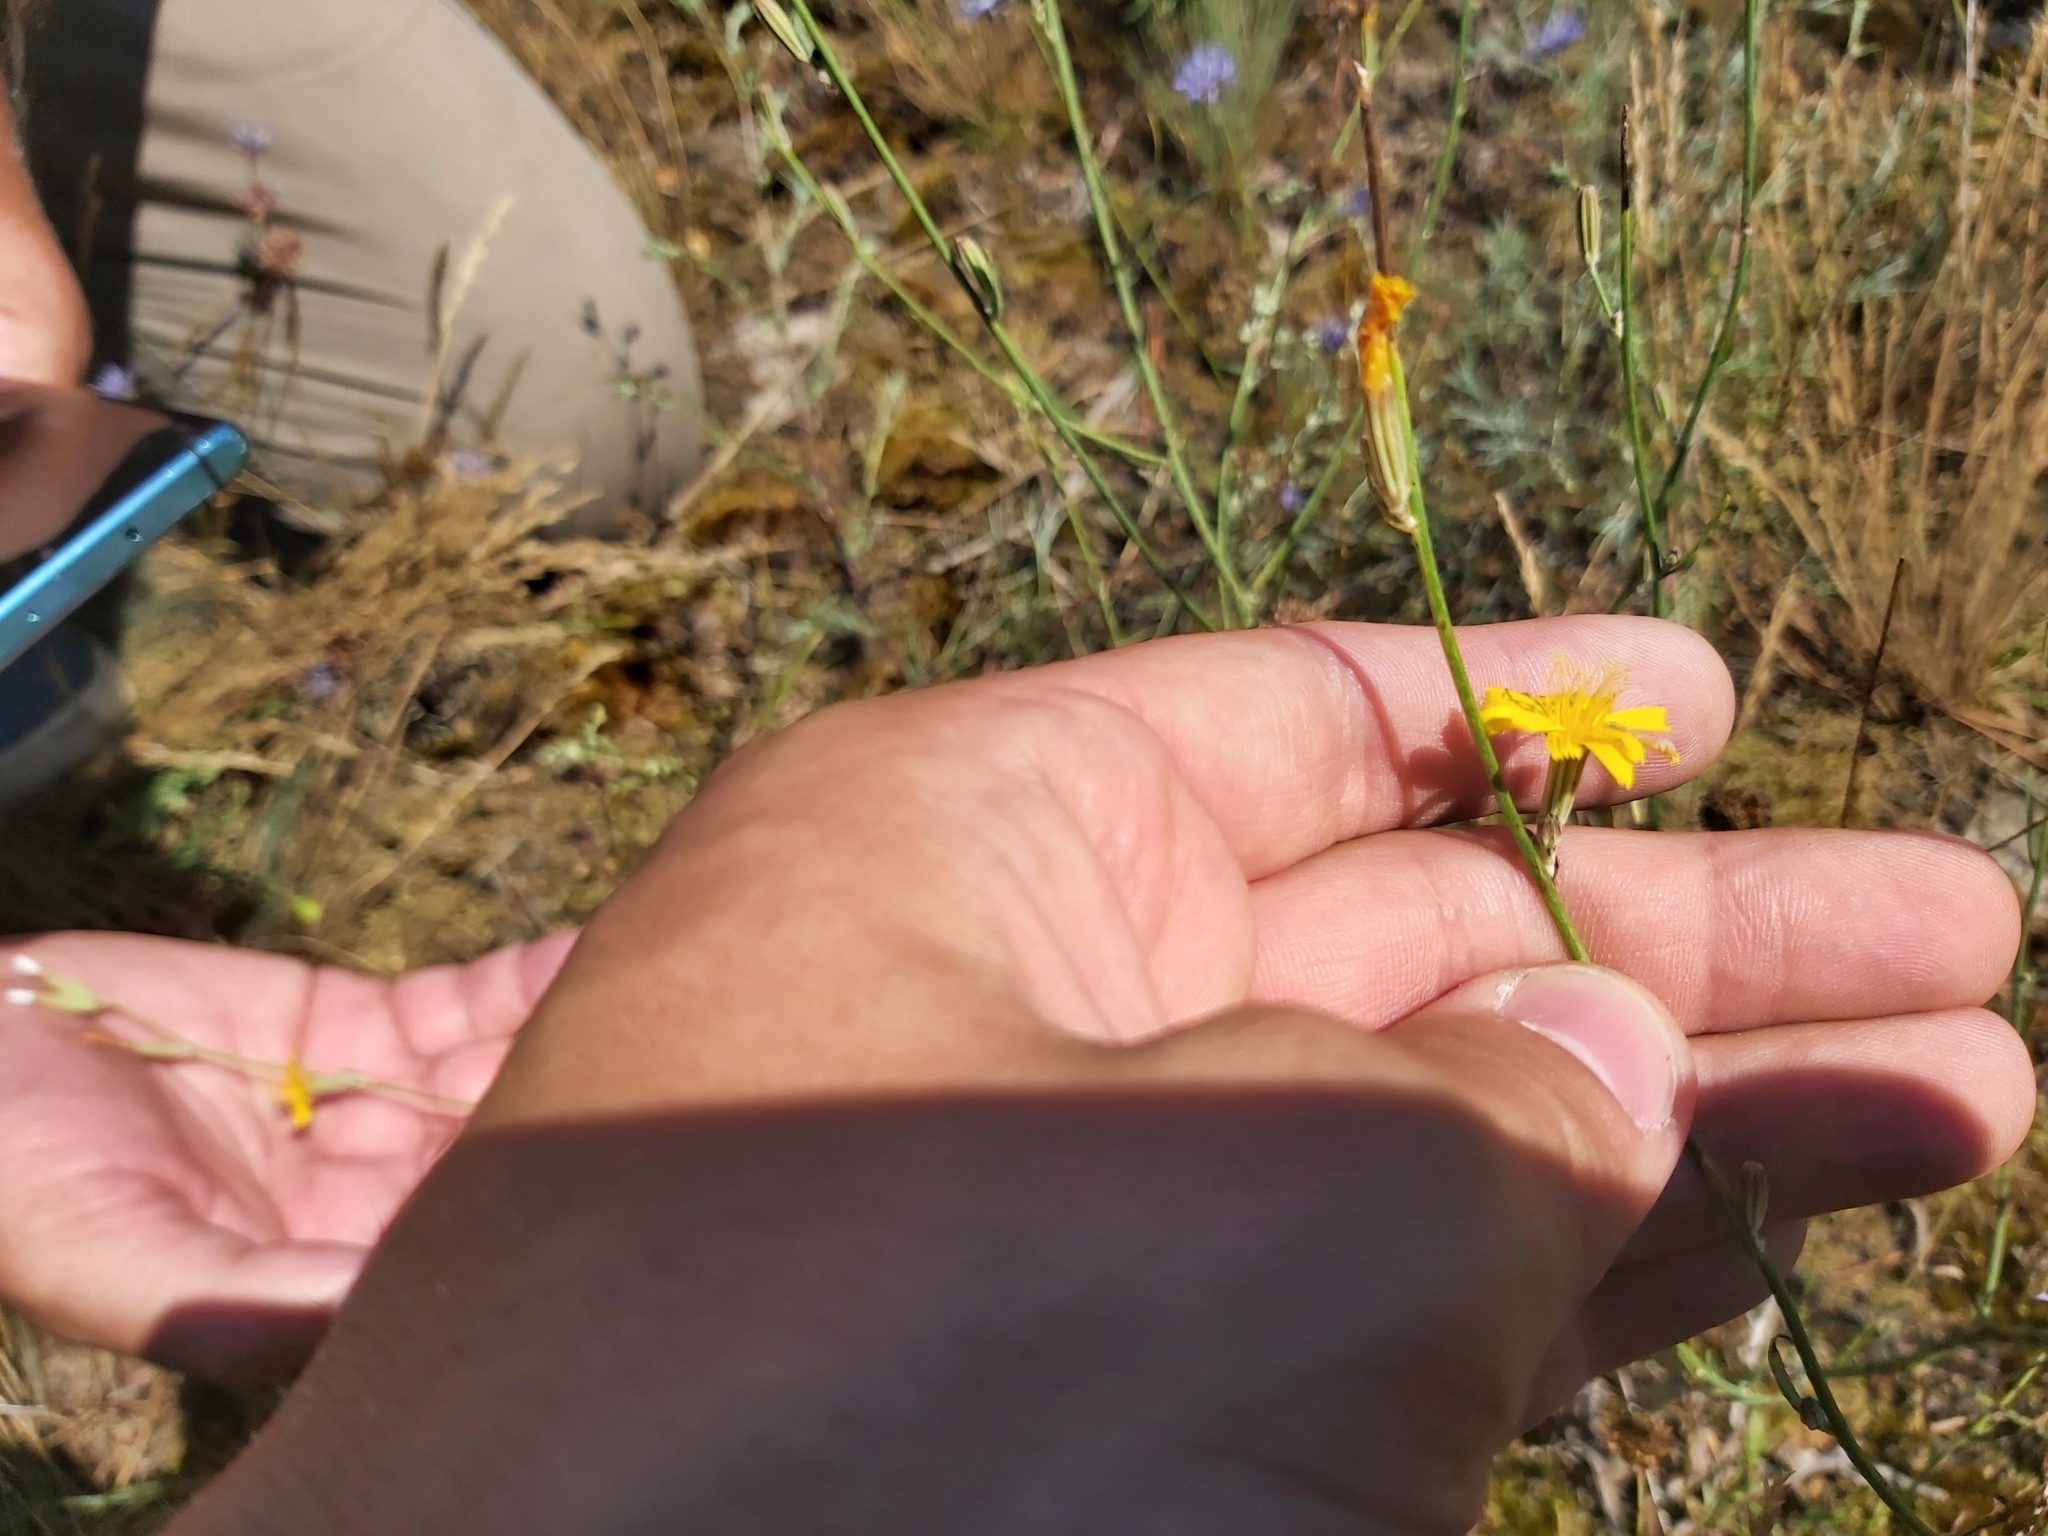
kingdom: Plantae
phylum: Tracheophyta
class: Magnoliopsida
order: Asterales
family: Asteraceae
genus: Chondrilla
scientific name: Chondrilla juncea
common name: Skeleton weed
